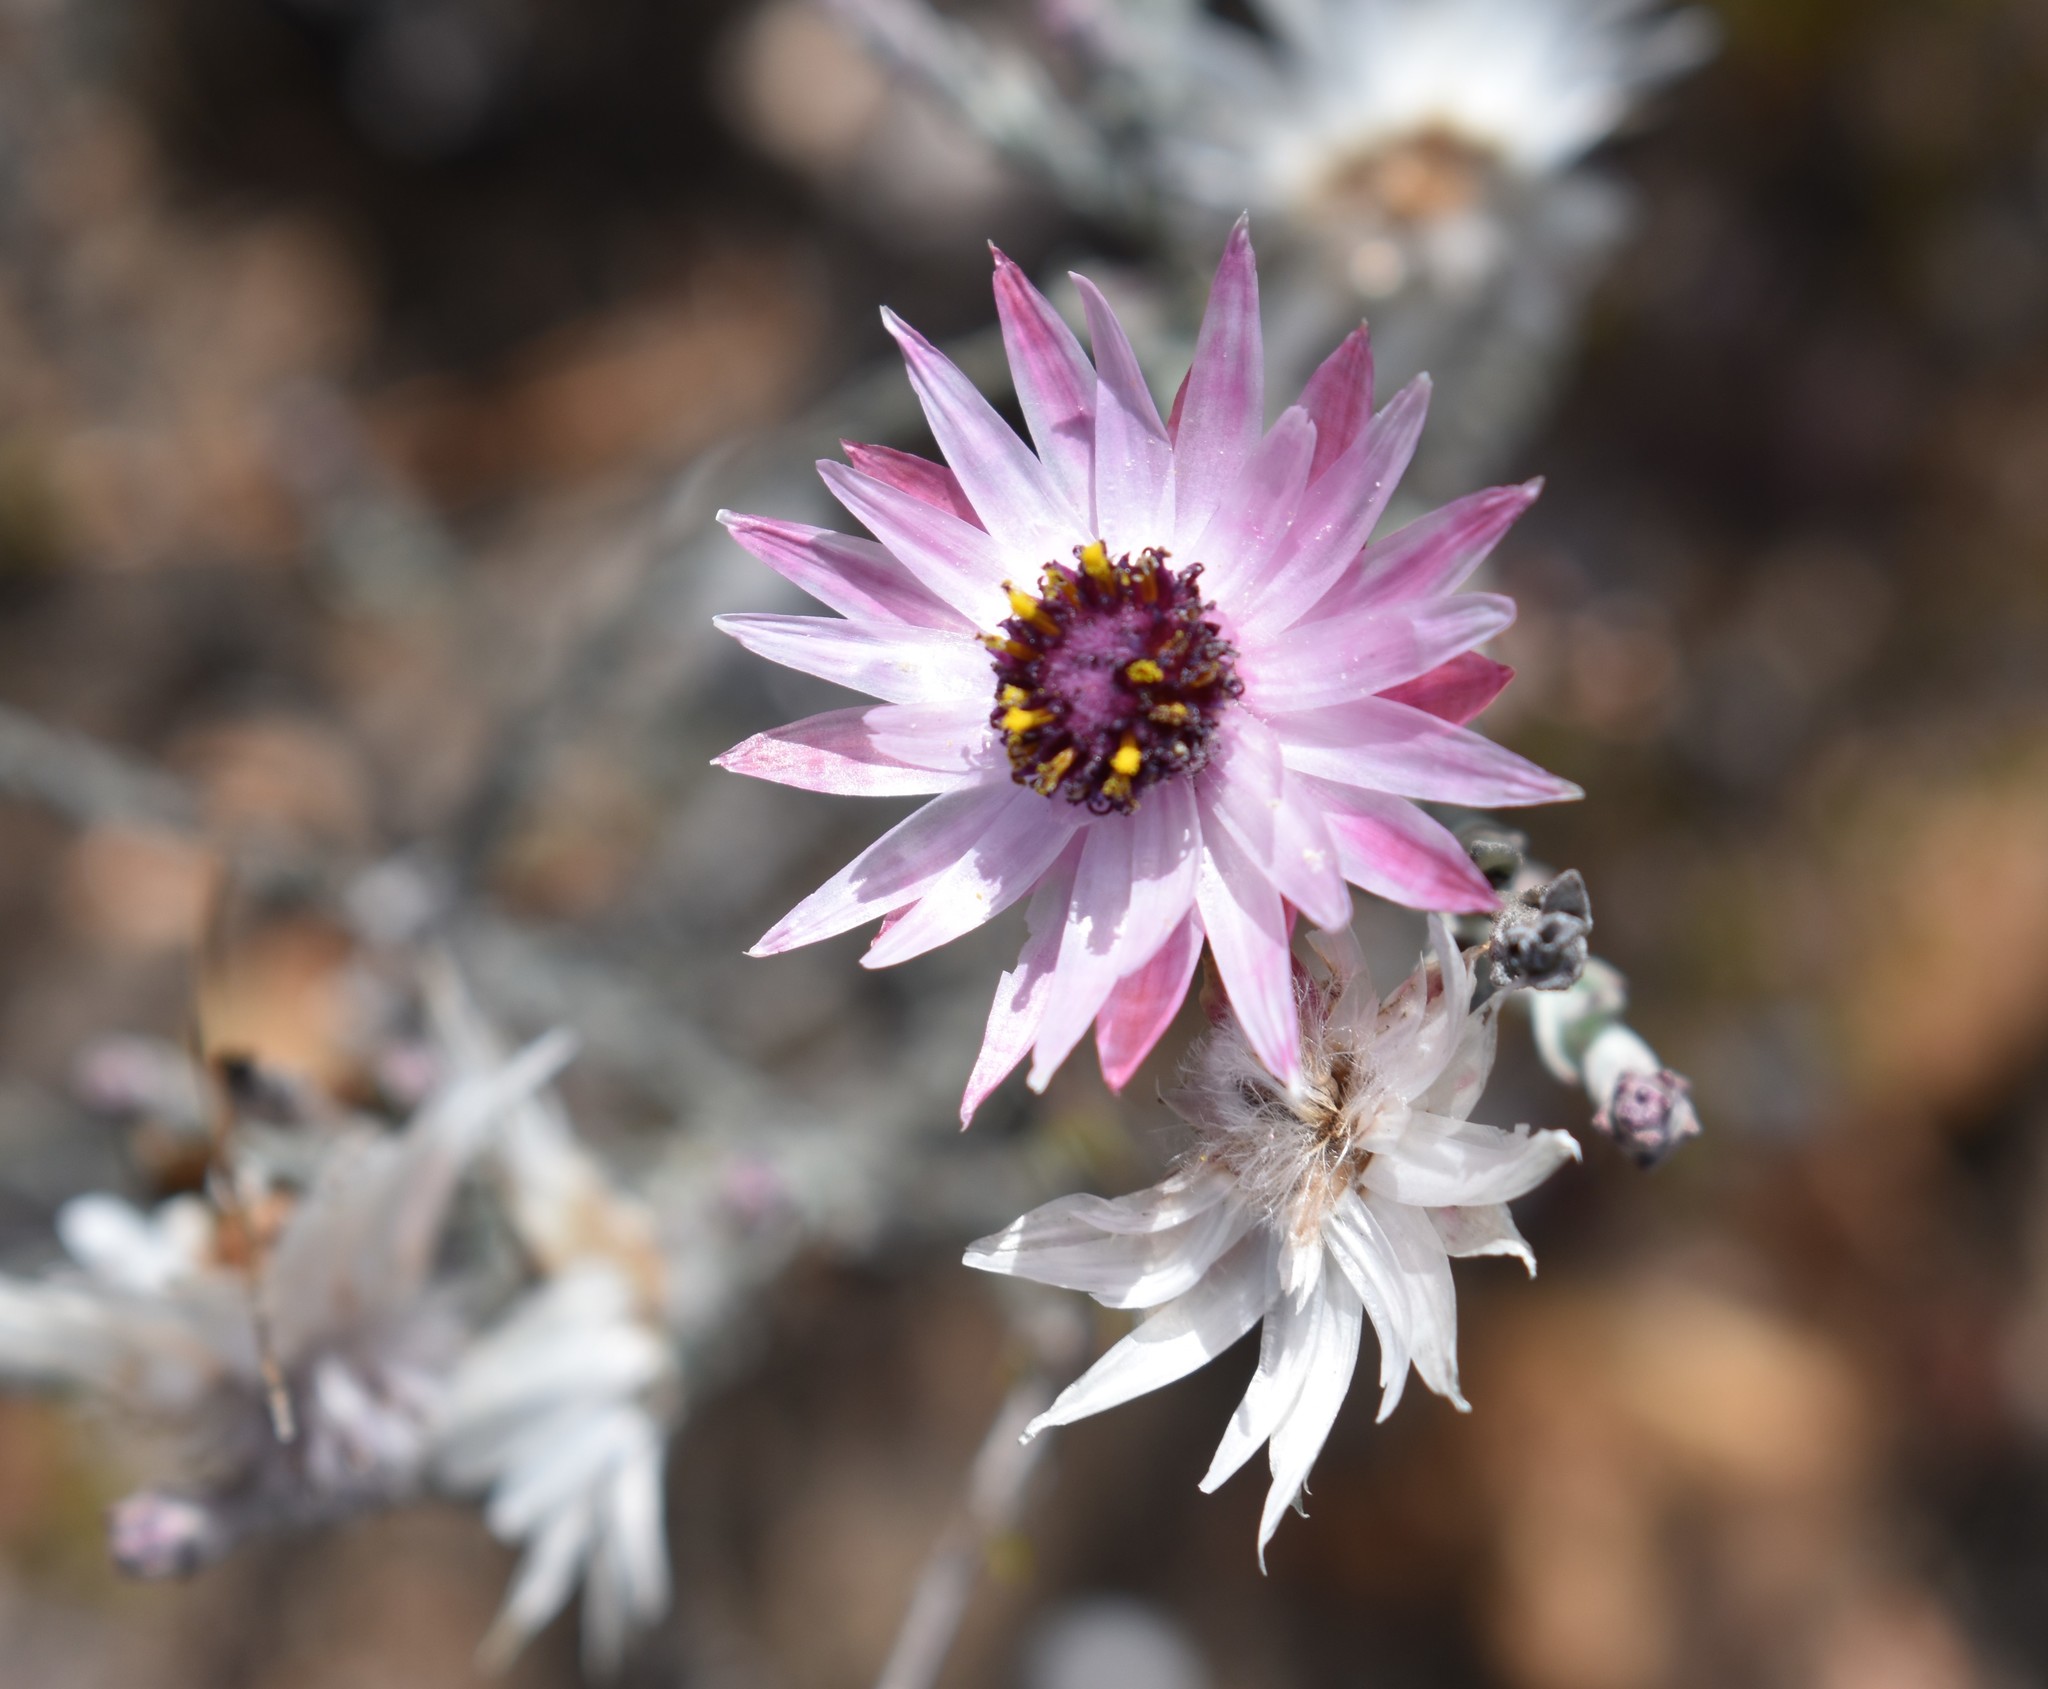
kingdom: Plantae
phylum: Tracheophyta
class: Magnoliopsida
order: Asterales
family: Asteraceae
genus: Syncarpha
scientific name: Syncarpha canescens
